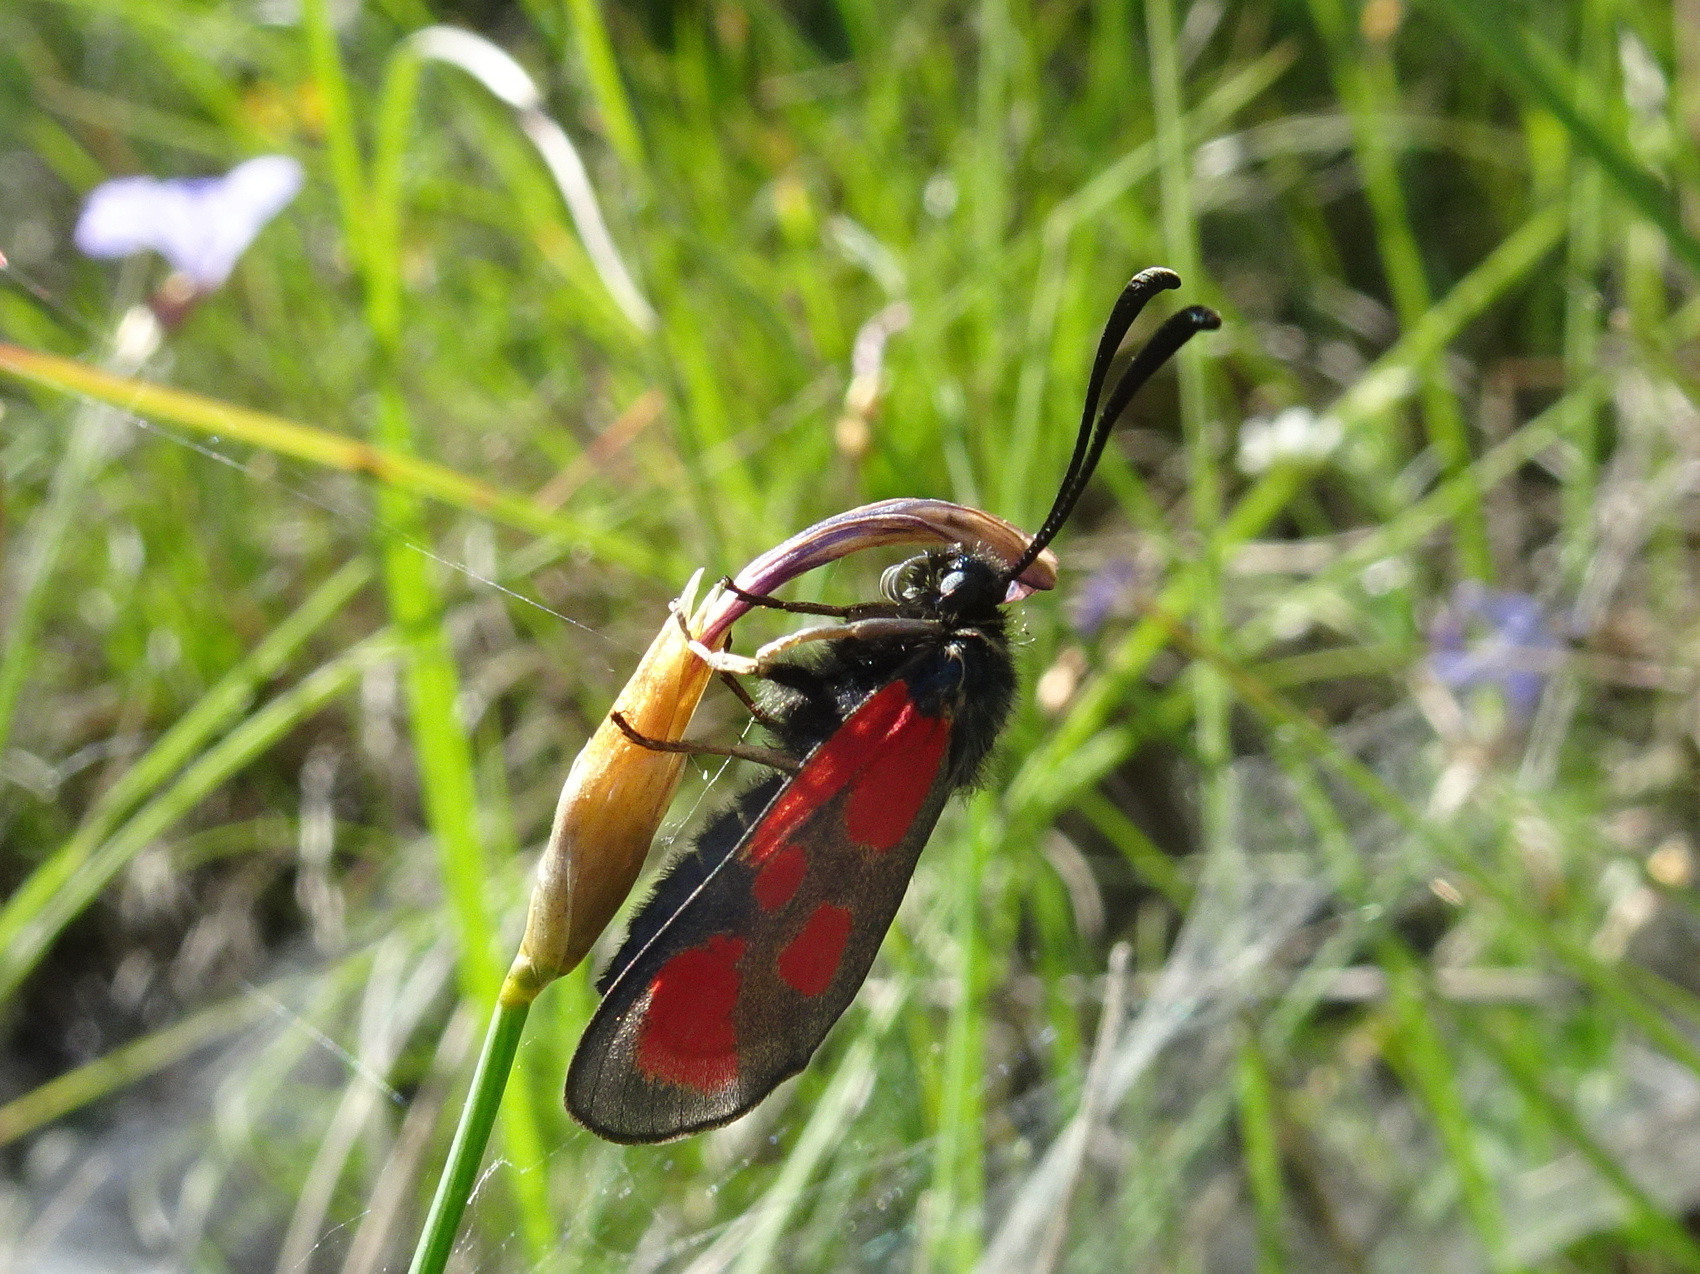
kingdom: Animalia
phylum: Arthropoda
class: Insecta
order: Lepidoptera
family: Zygaenidae
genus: Zygaena
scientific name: Zygaena loti
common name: Slender scotch burnet
